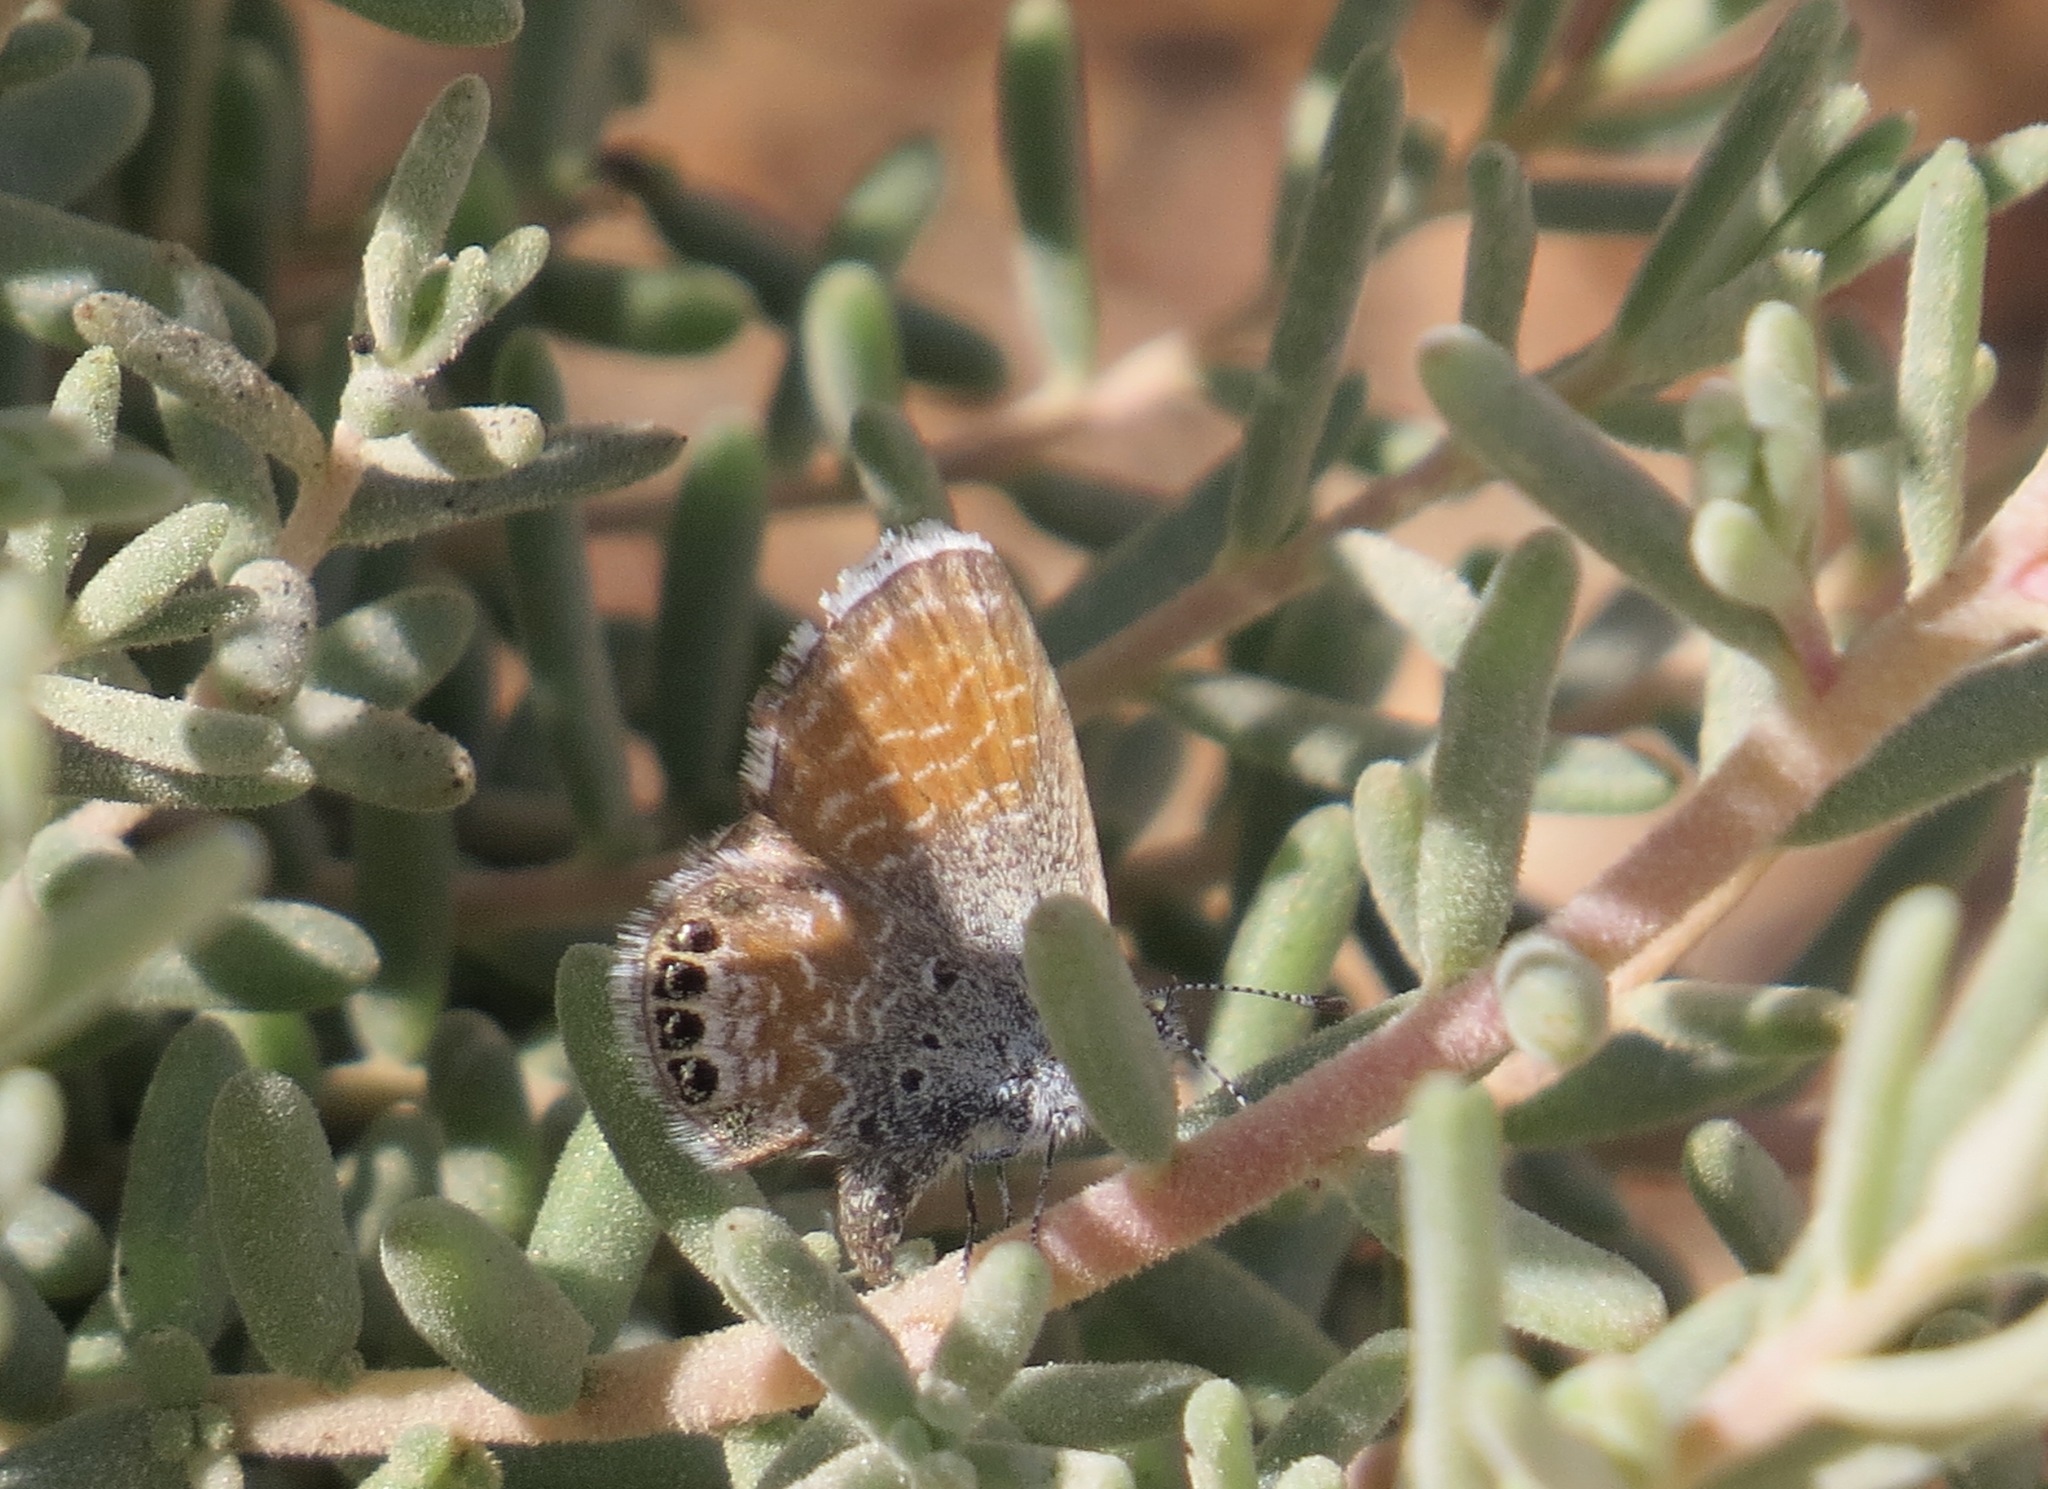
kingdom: Animalia
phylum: Arthropoda
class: Insecta
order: Lepidoptera
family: Lycaenidae
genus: Brephidium
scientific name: Brephidium exilis
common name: Pygmy blue
